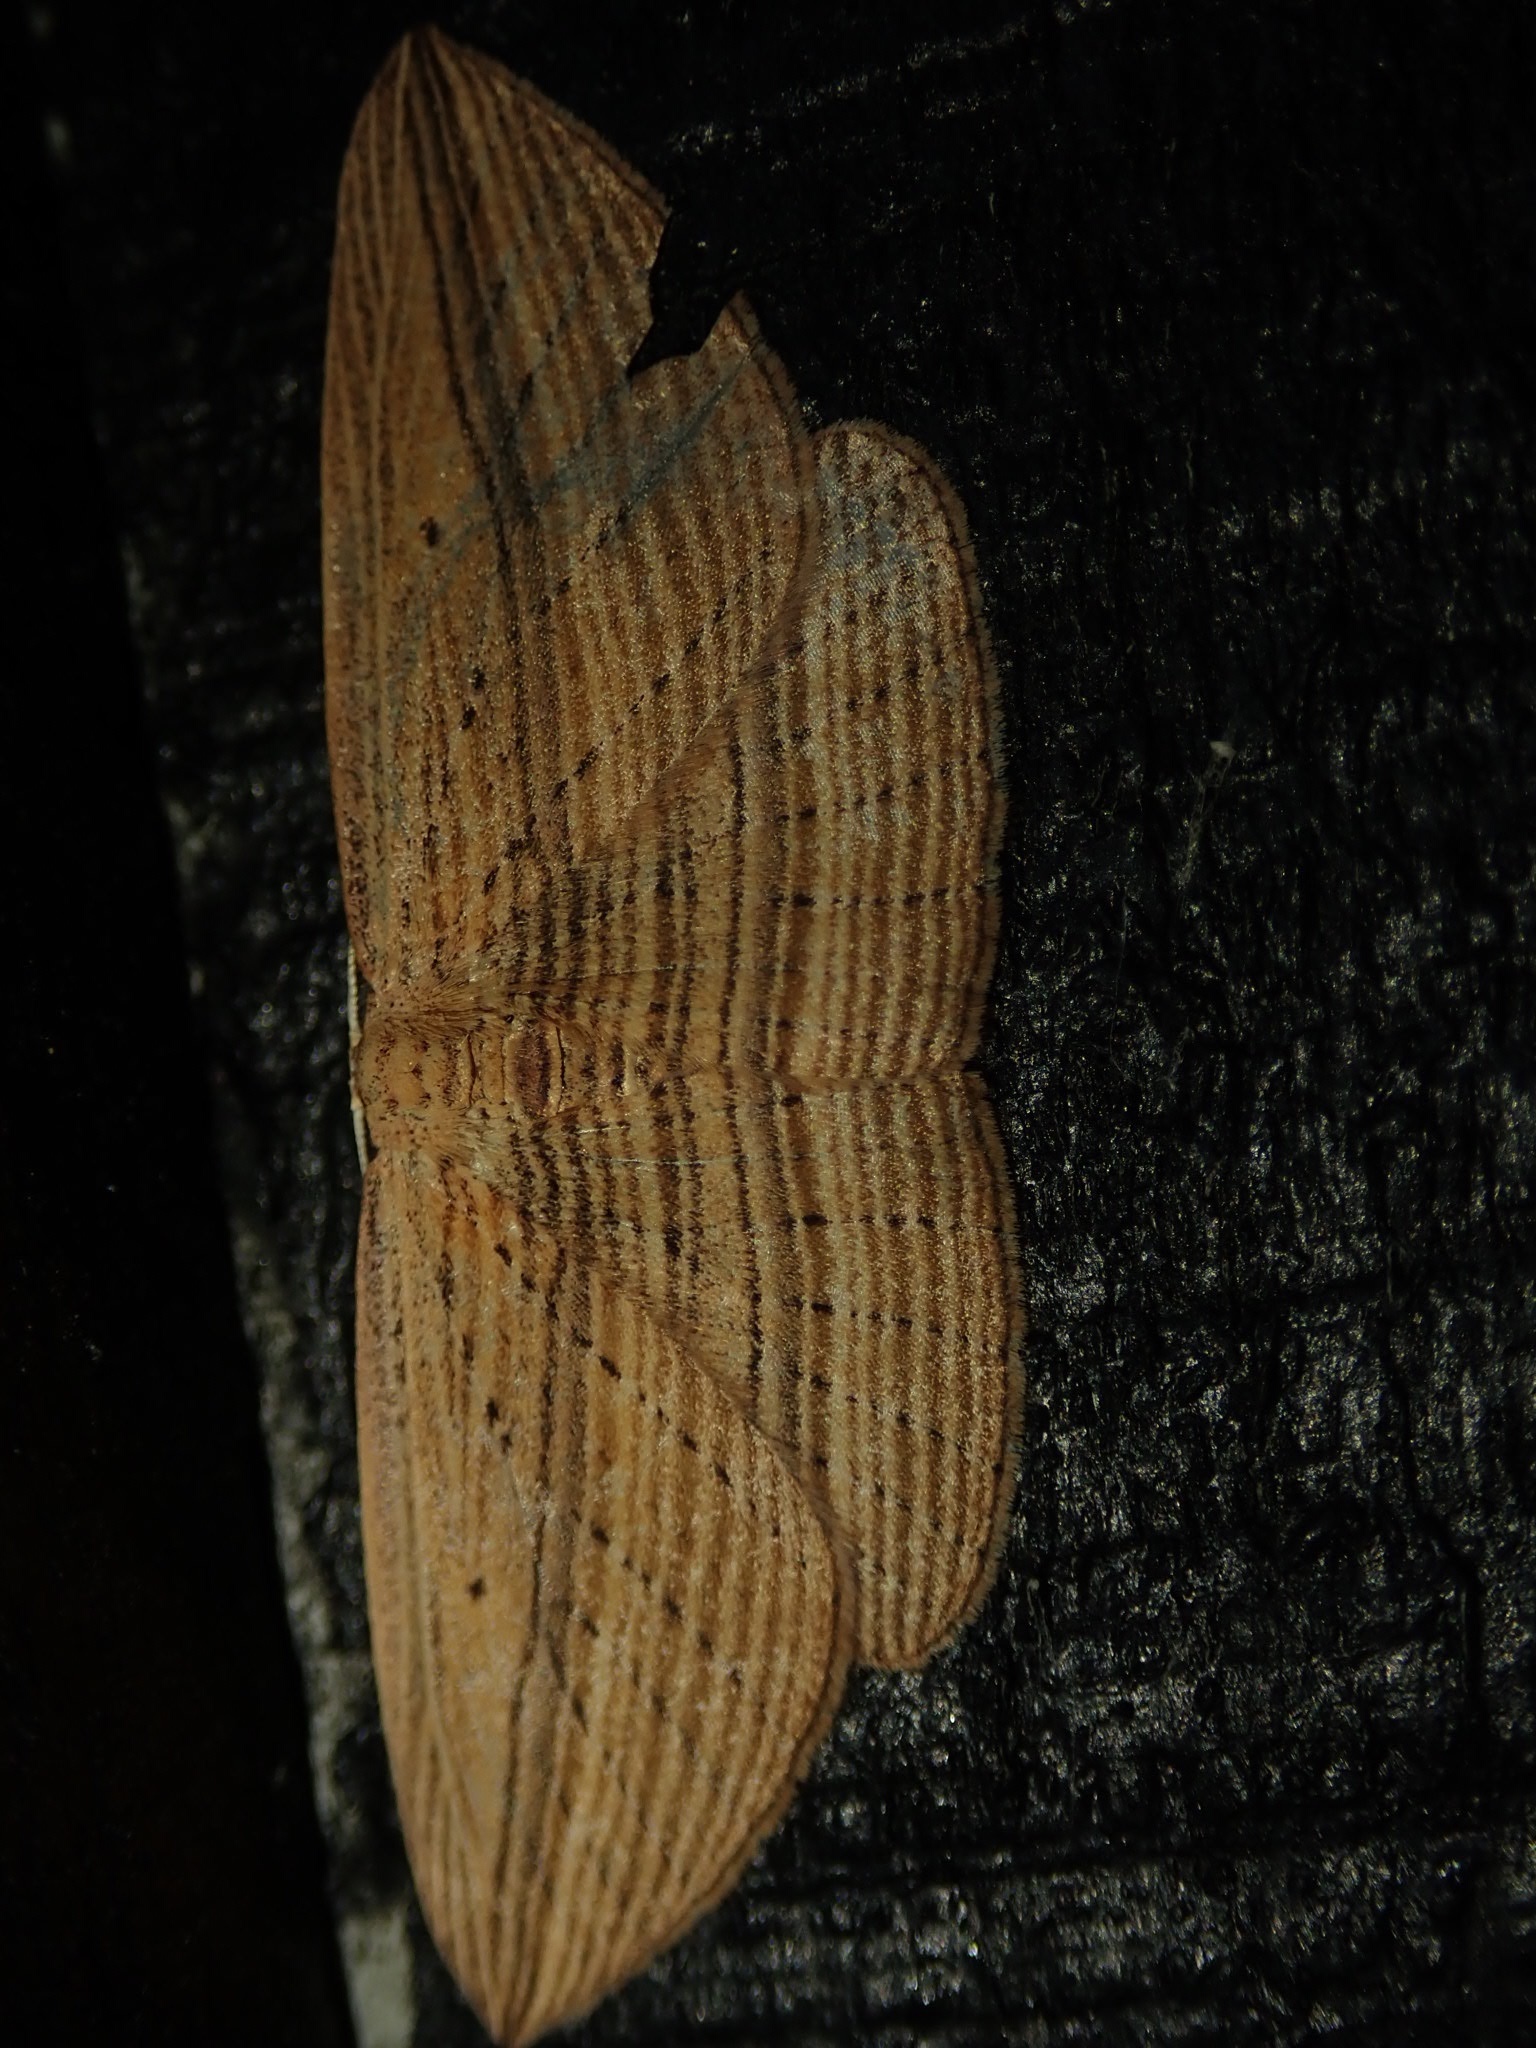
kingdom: Animalia
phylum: Arthropoda
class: Insecta
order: Lepidoptera
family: Geometridae
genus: Epiphryne
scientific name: Epiphryne verriculata
